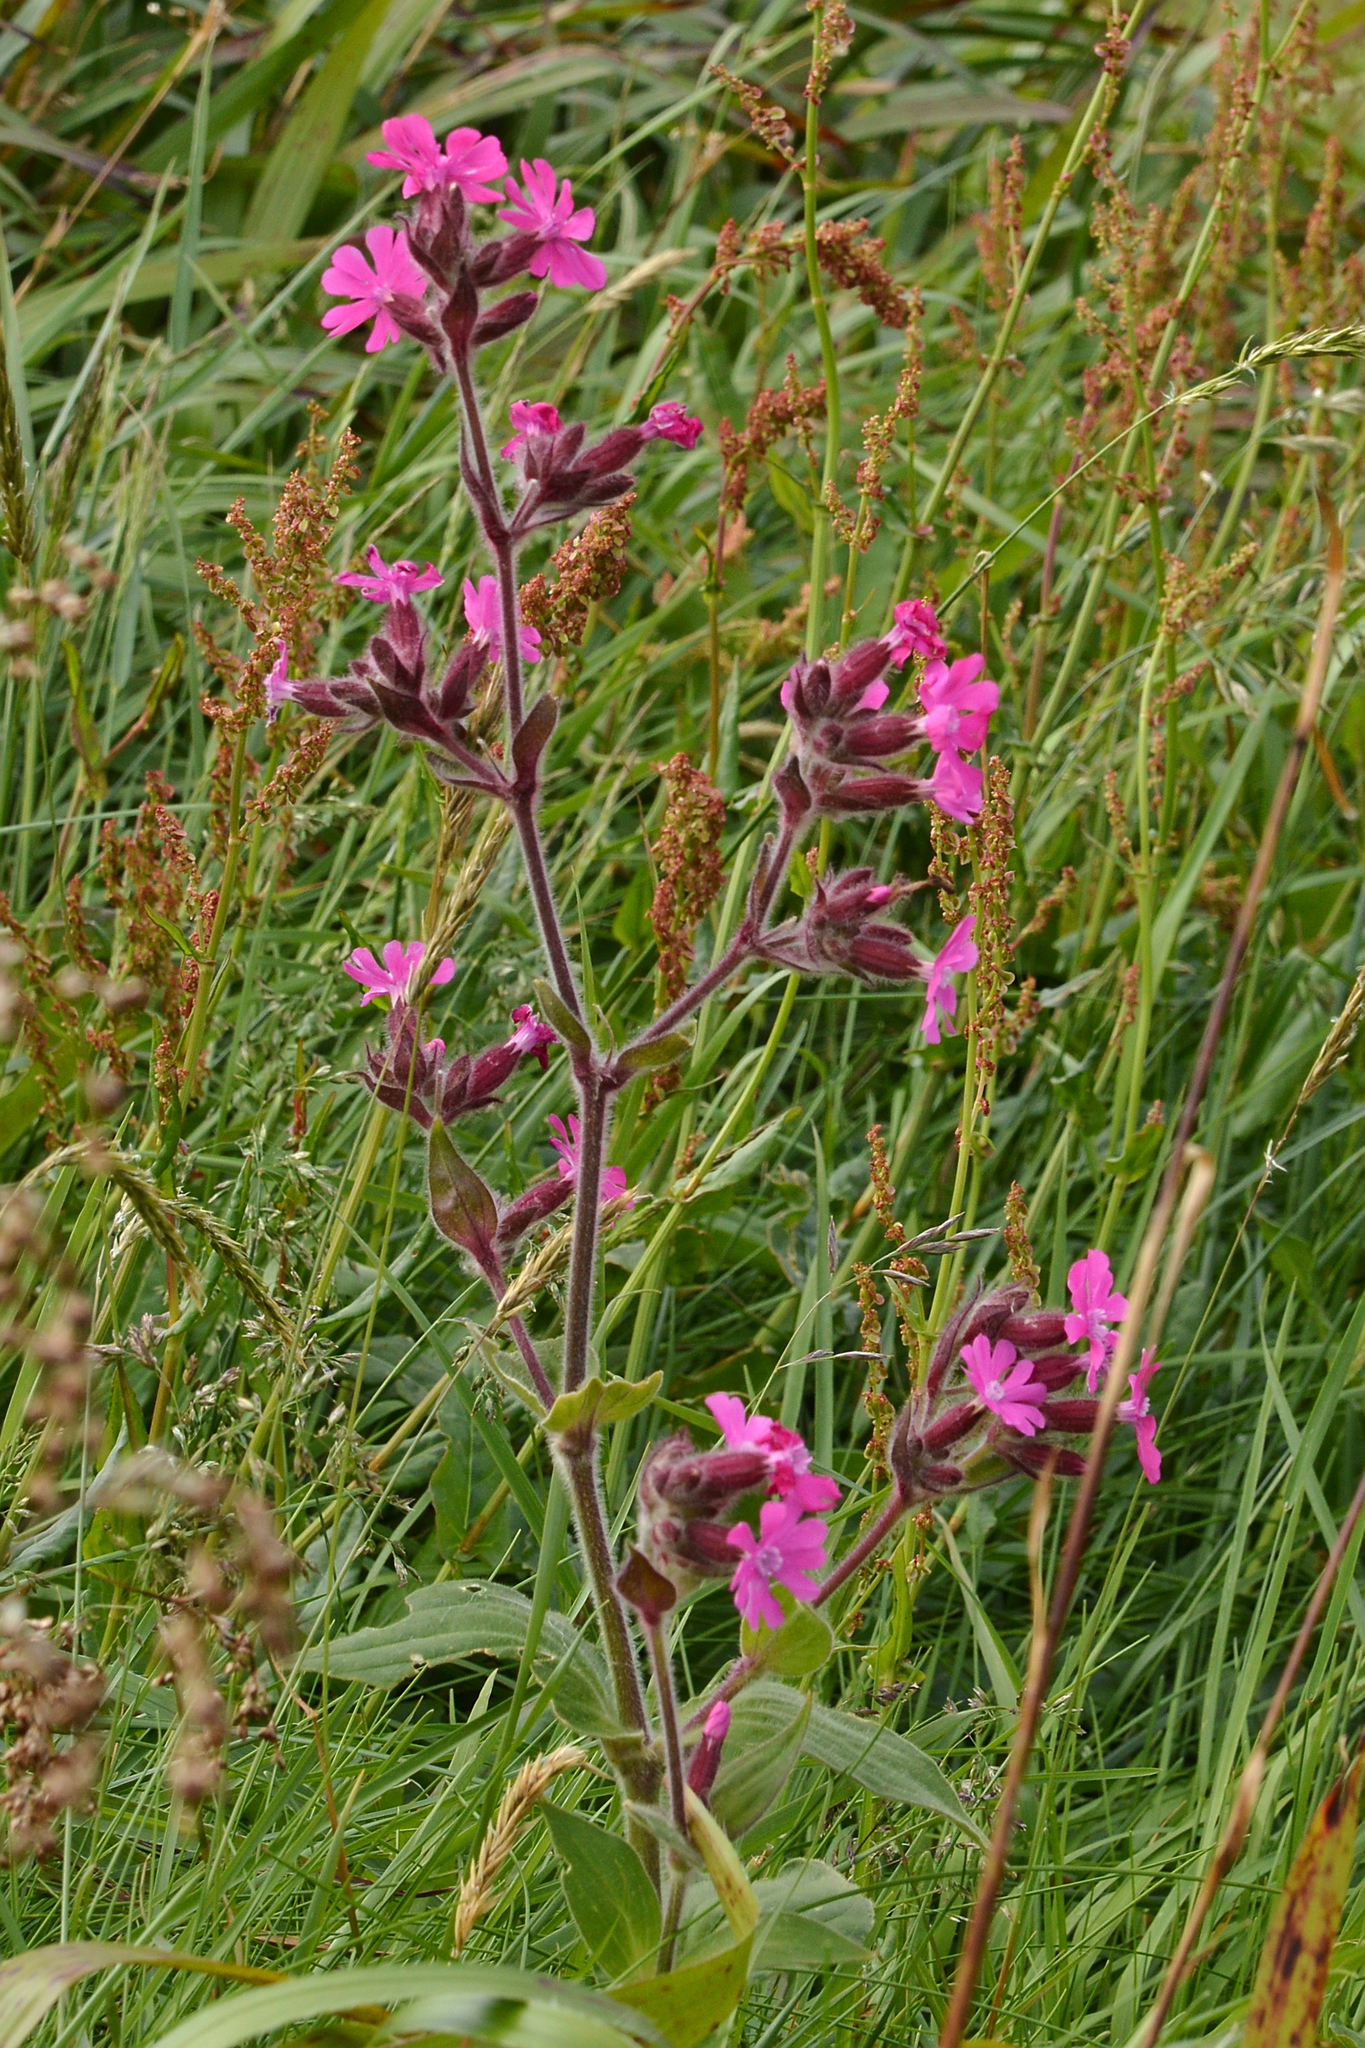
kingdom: Plantae
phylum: Tracheophyta
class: Magnoliopsida
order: Caryophyllales
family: Caryophyllaceae
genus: Silene
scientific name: Silene dioica
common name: Red campion
